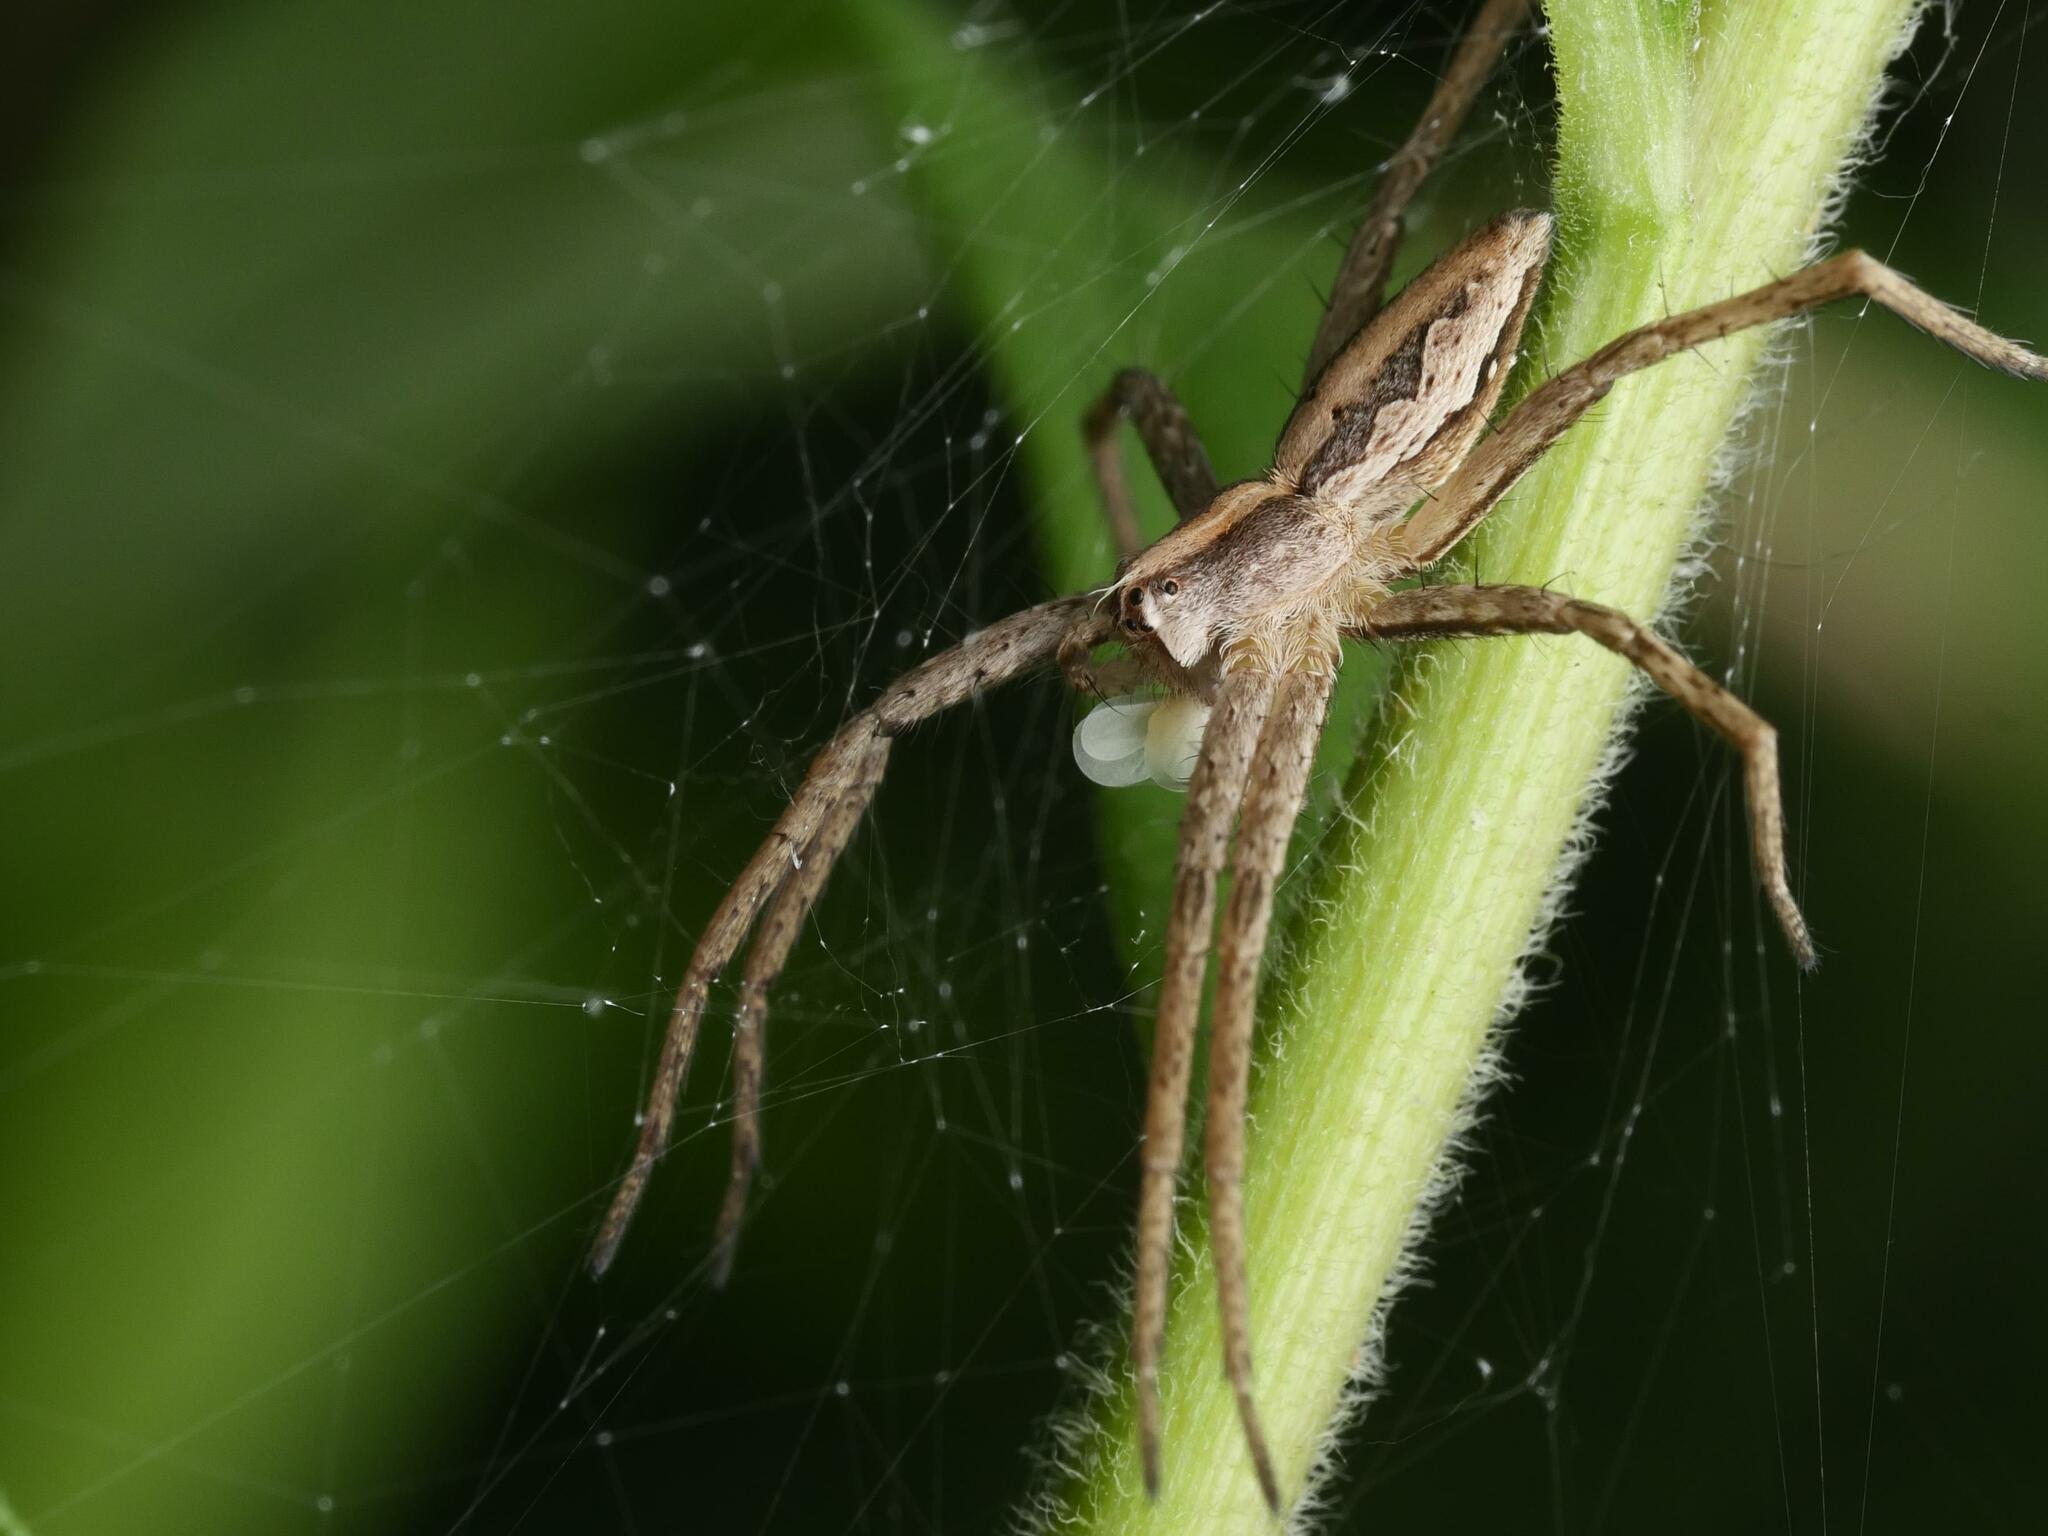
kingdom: Animalia
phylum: Arthropoda
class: Arachnida
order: Araneae
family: Pisauridae
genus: Pisaura
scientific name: Pisaura mirabilis
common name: Tent spider
